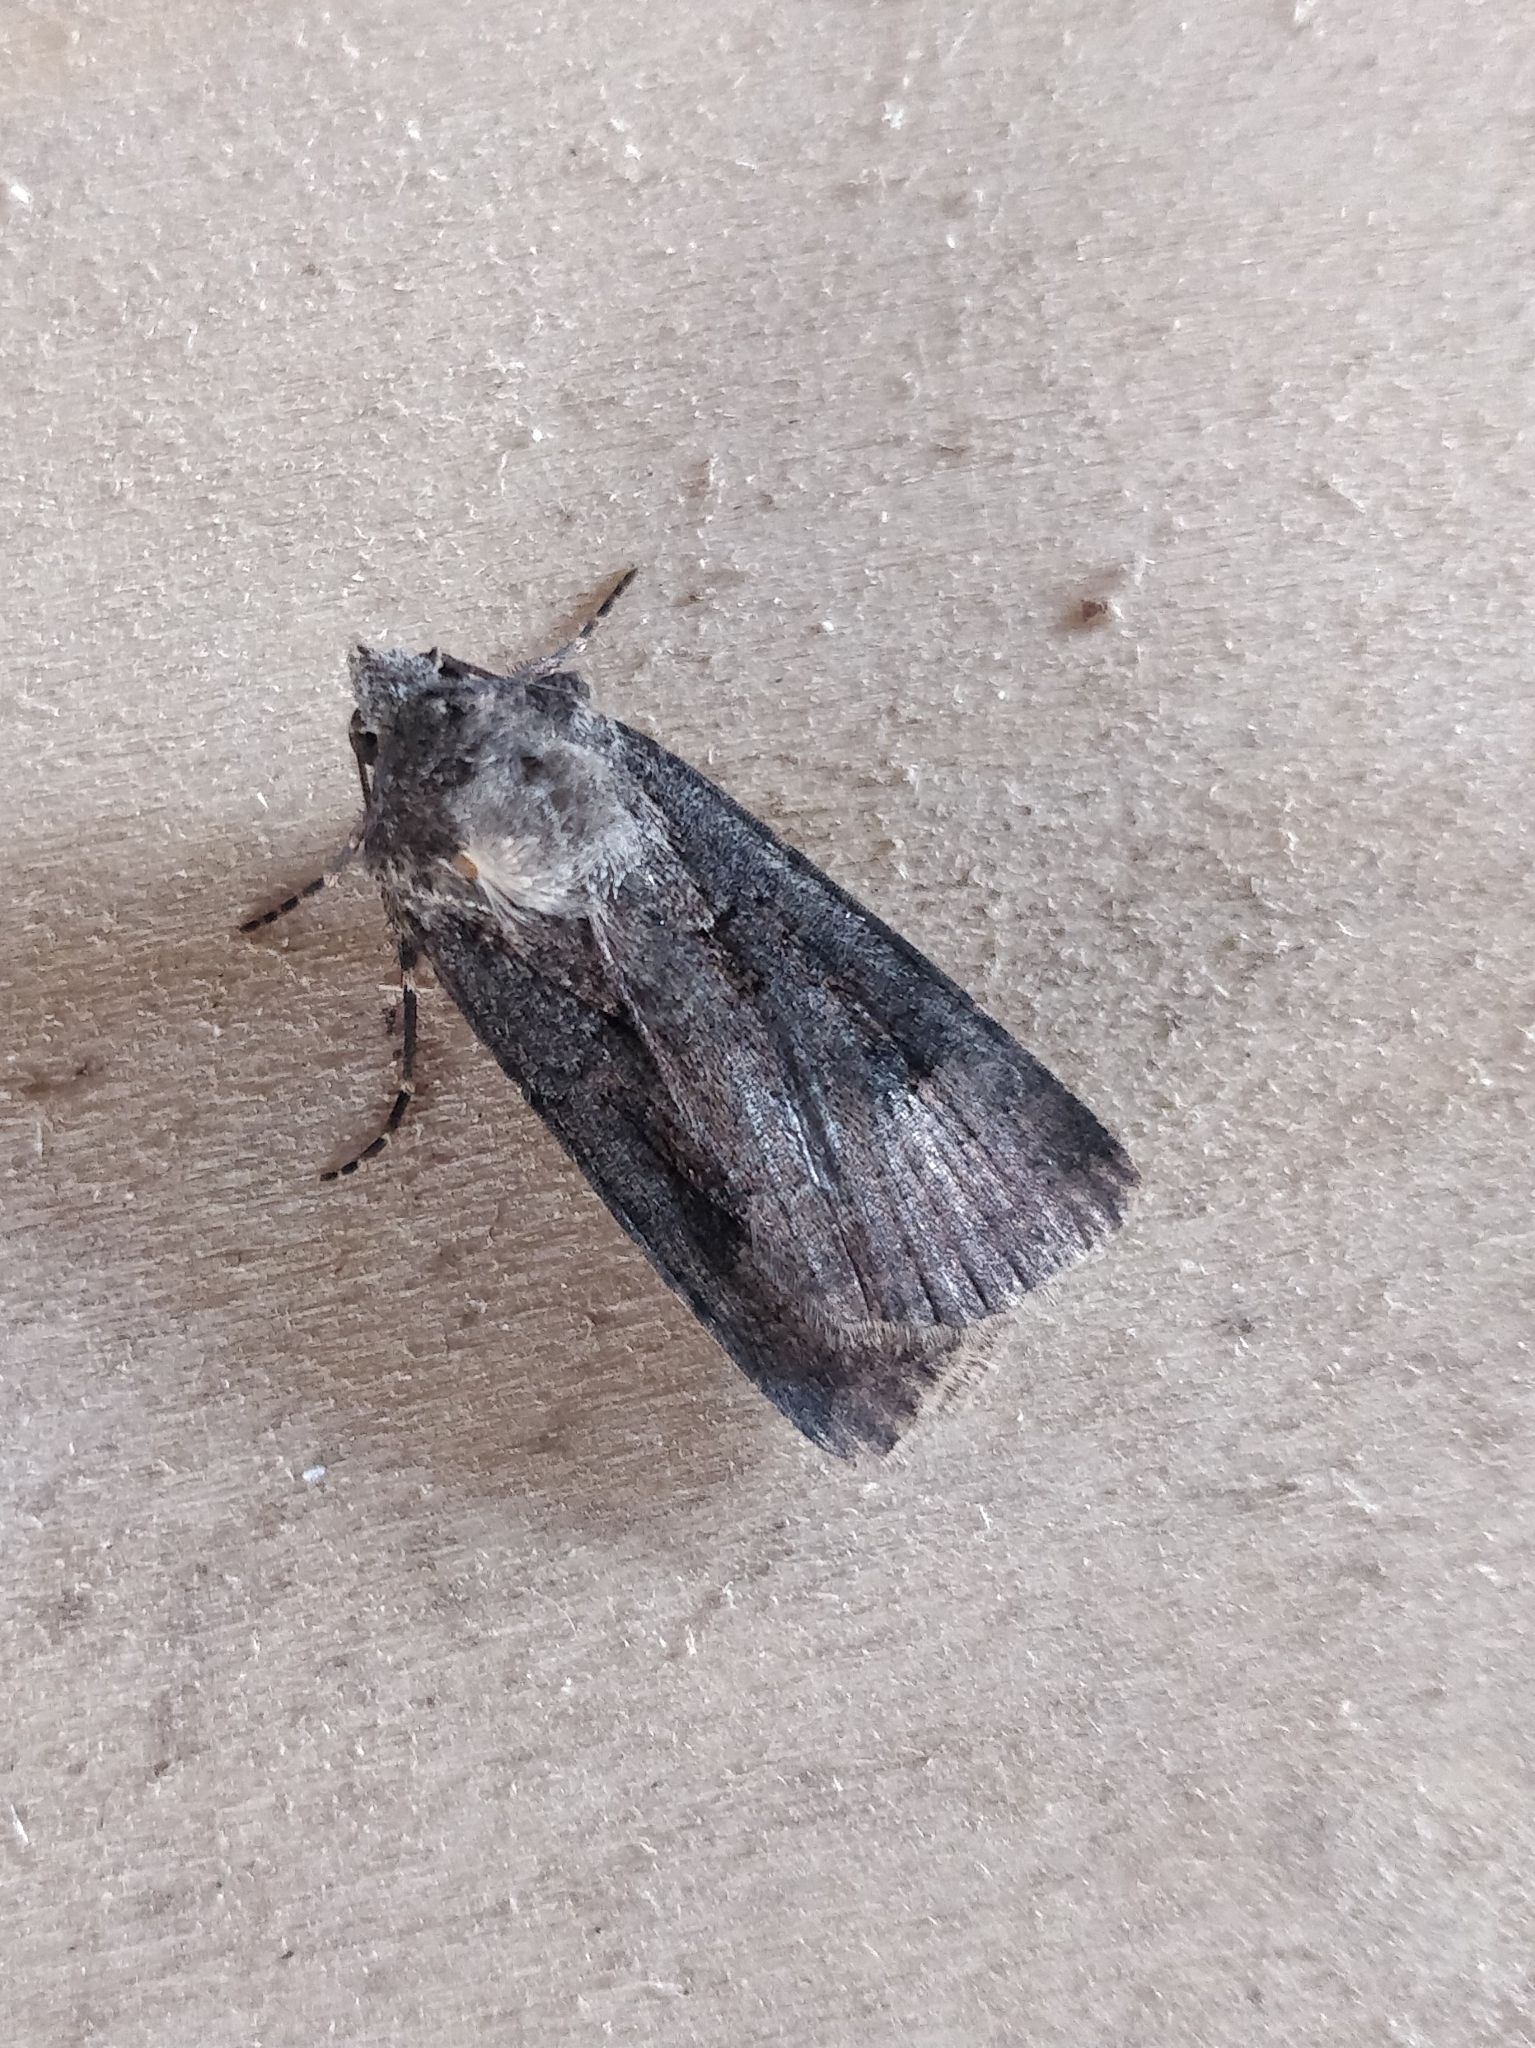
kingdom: Animalia
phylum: Arthropoda
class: Insecta
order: Lepidoptera
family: Noctuidae
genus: Agrotis
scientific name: Agrotis trux
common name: Crescent dart
